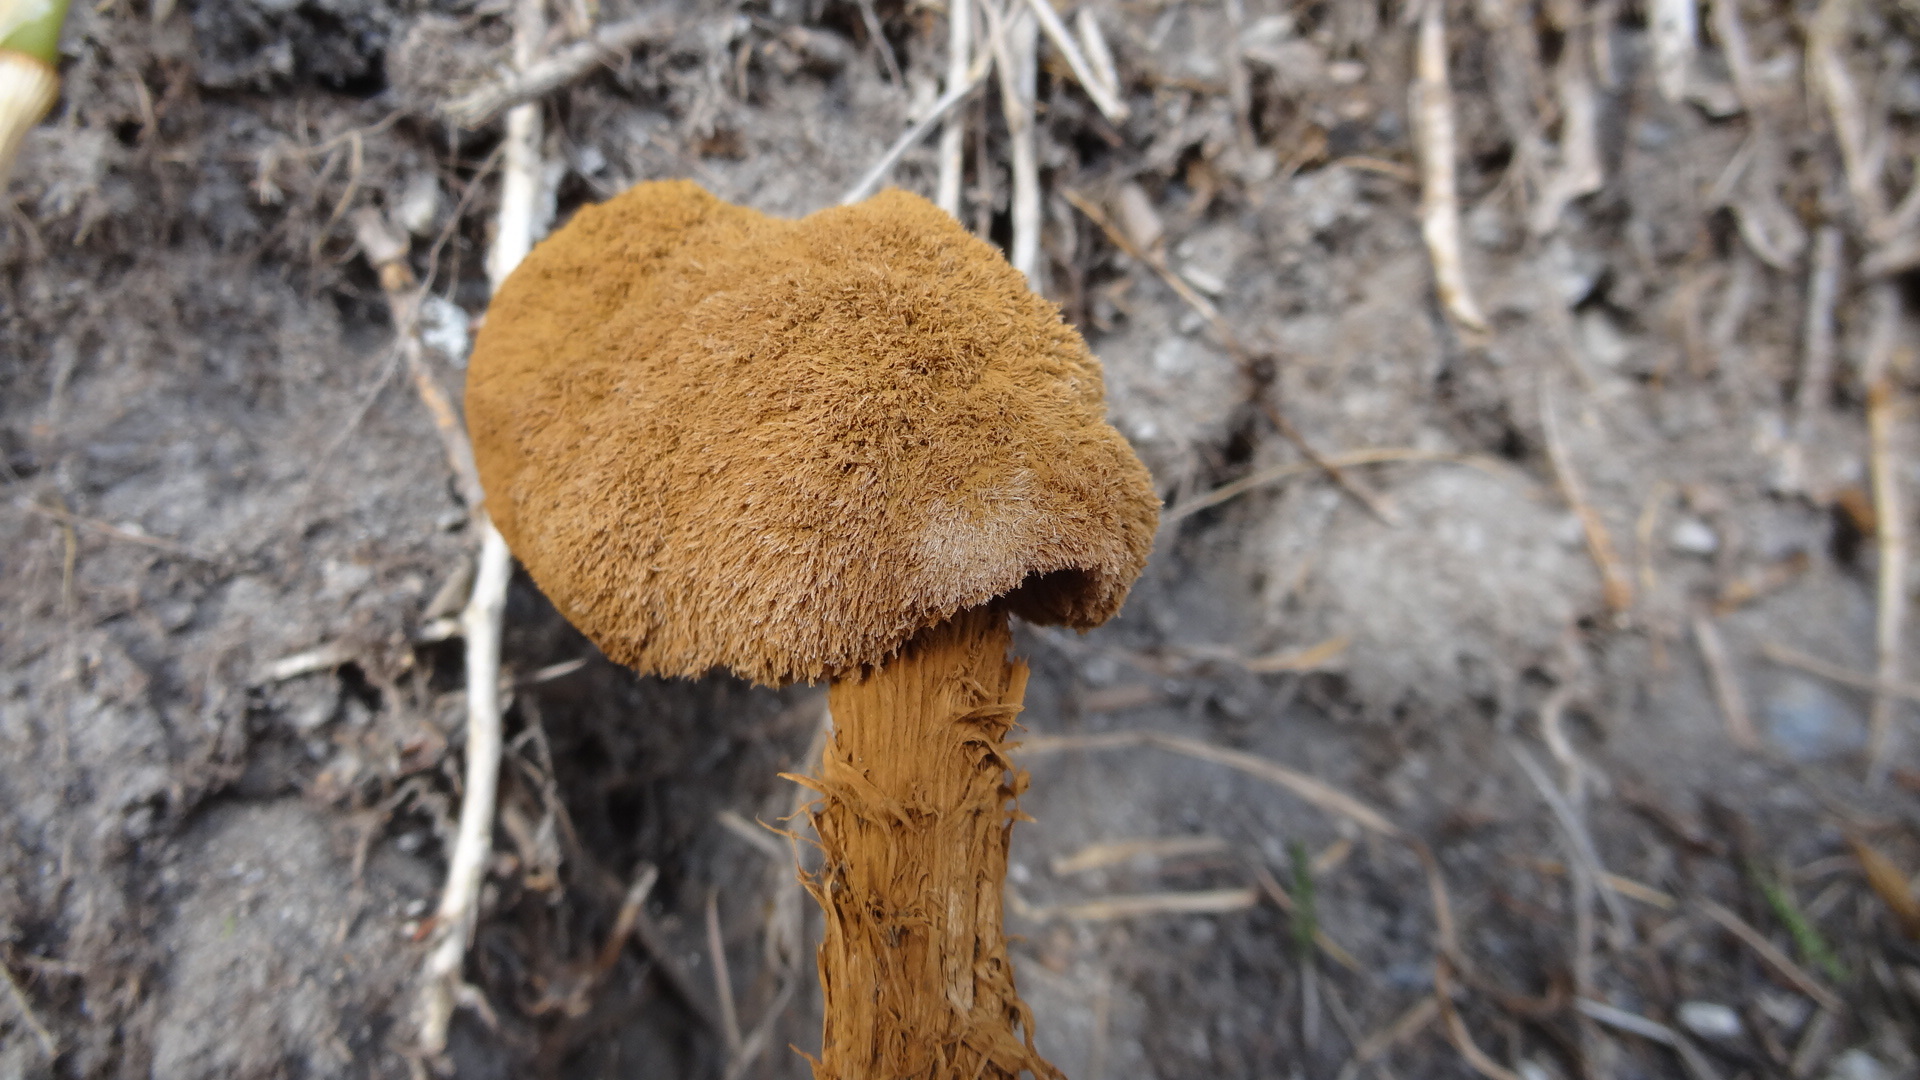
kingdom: Fungi
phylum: Basidiomycota
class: Agaricomycetes
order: Agaricales
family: Agaricaceae
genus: Battarrea
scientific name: Battarrea phalloides
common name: Sandy stiltball
